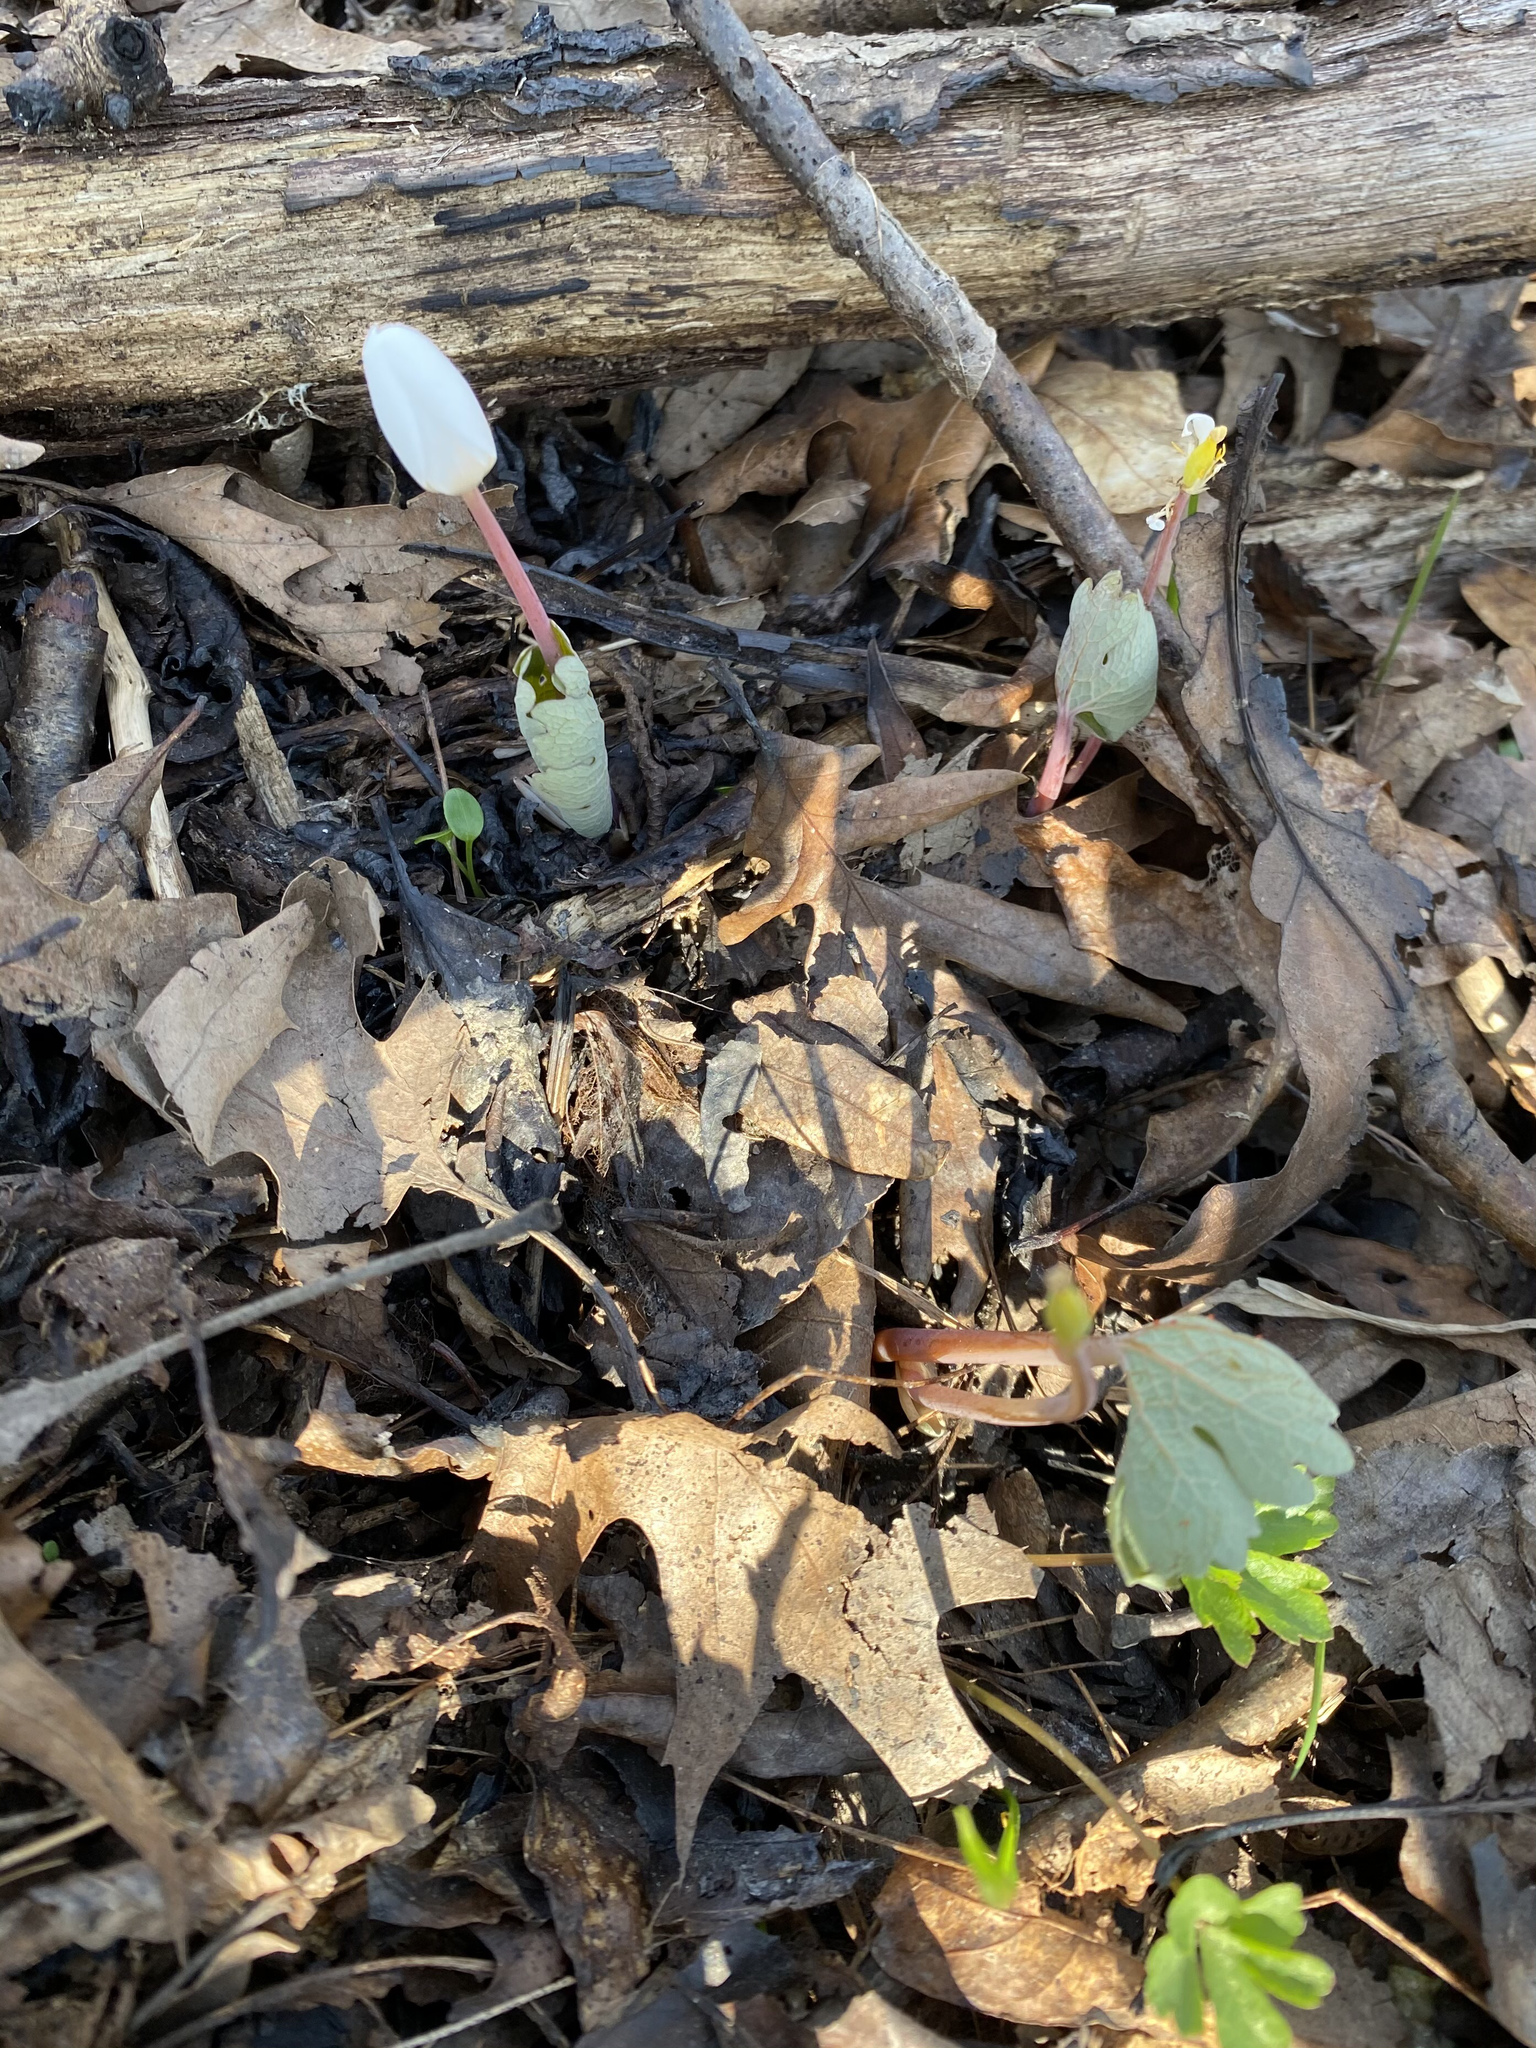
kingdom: Plantae
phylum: Tracheophyta
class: Magnoliopsida
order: Ranunculales
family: Papaveraceae
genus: Sanguinaria
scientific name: Sanguinaria canadensis
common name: Bloodroot
